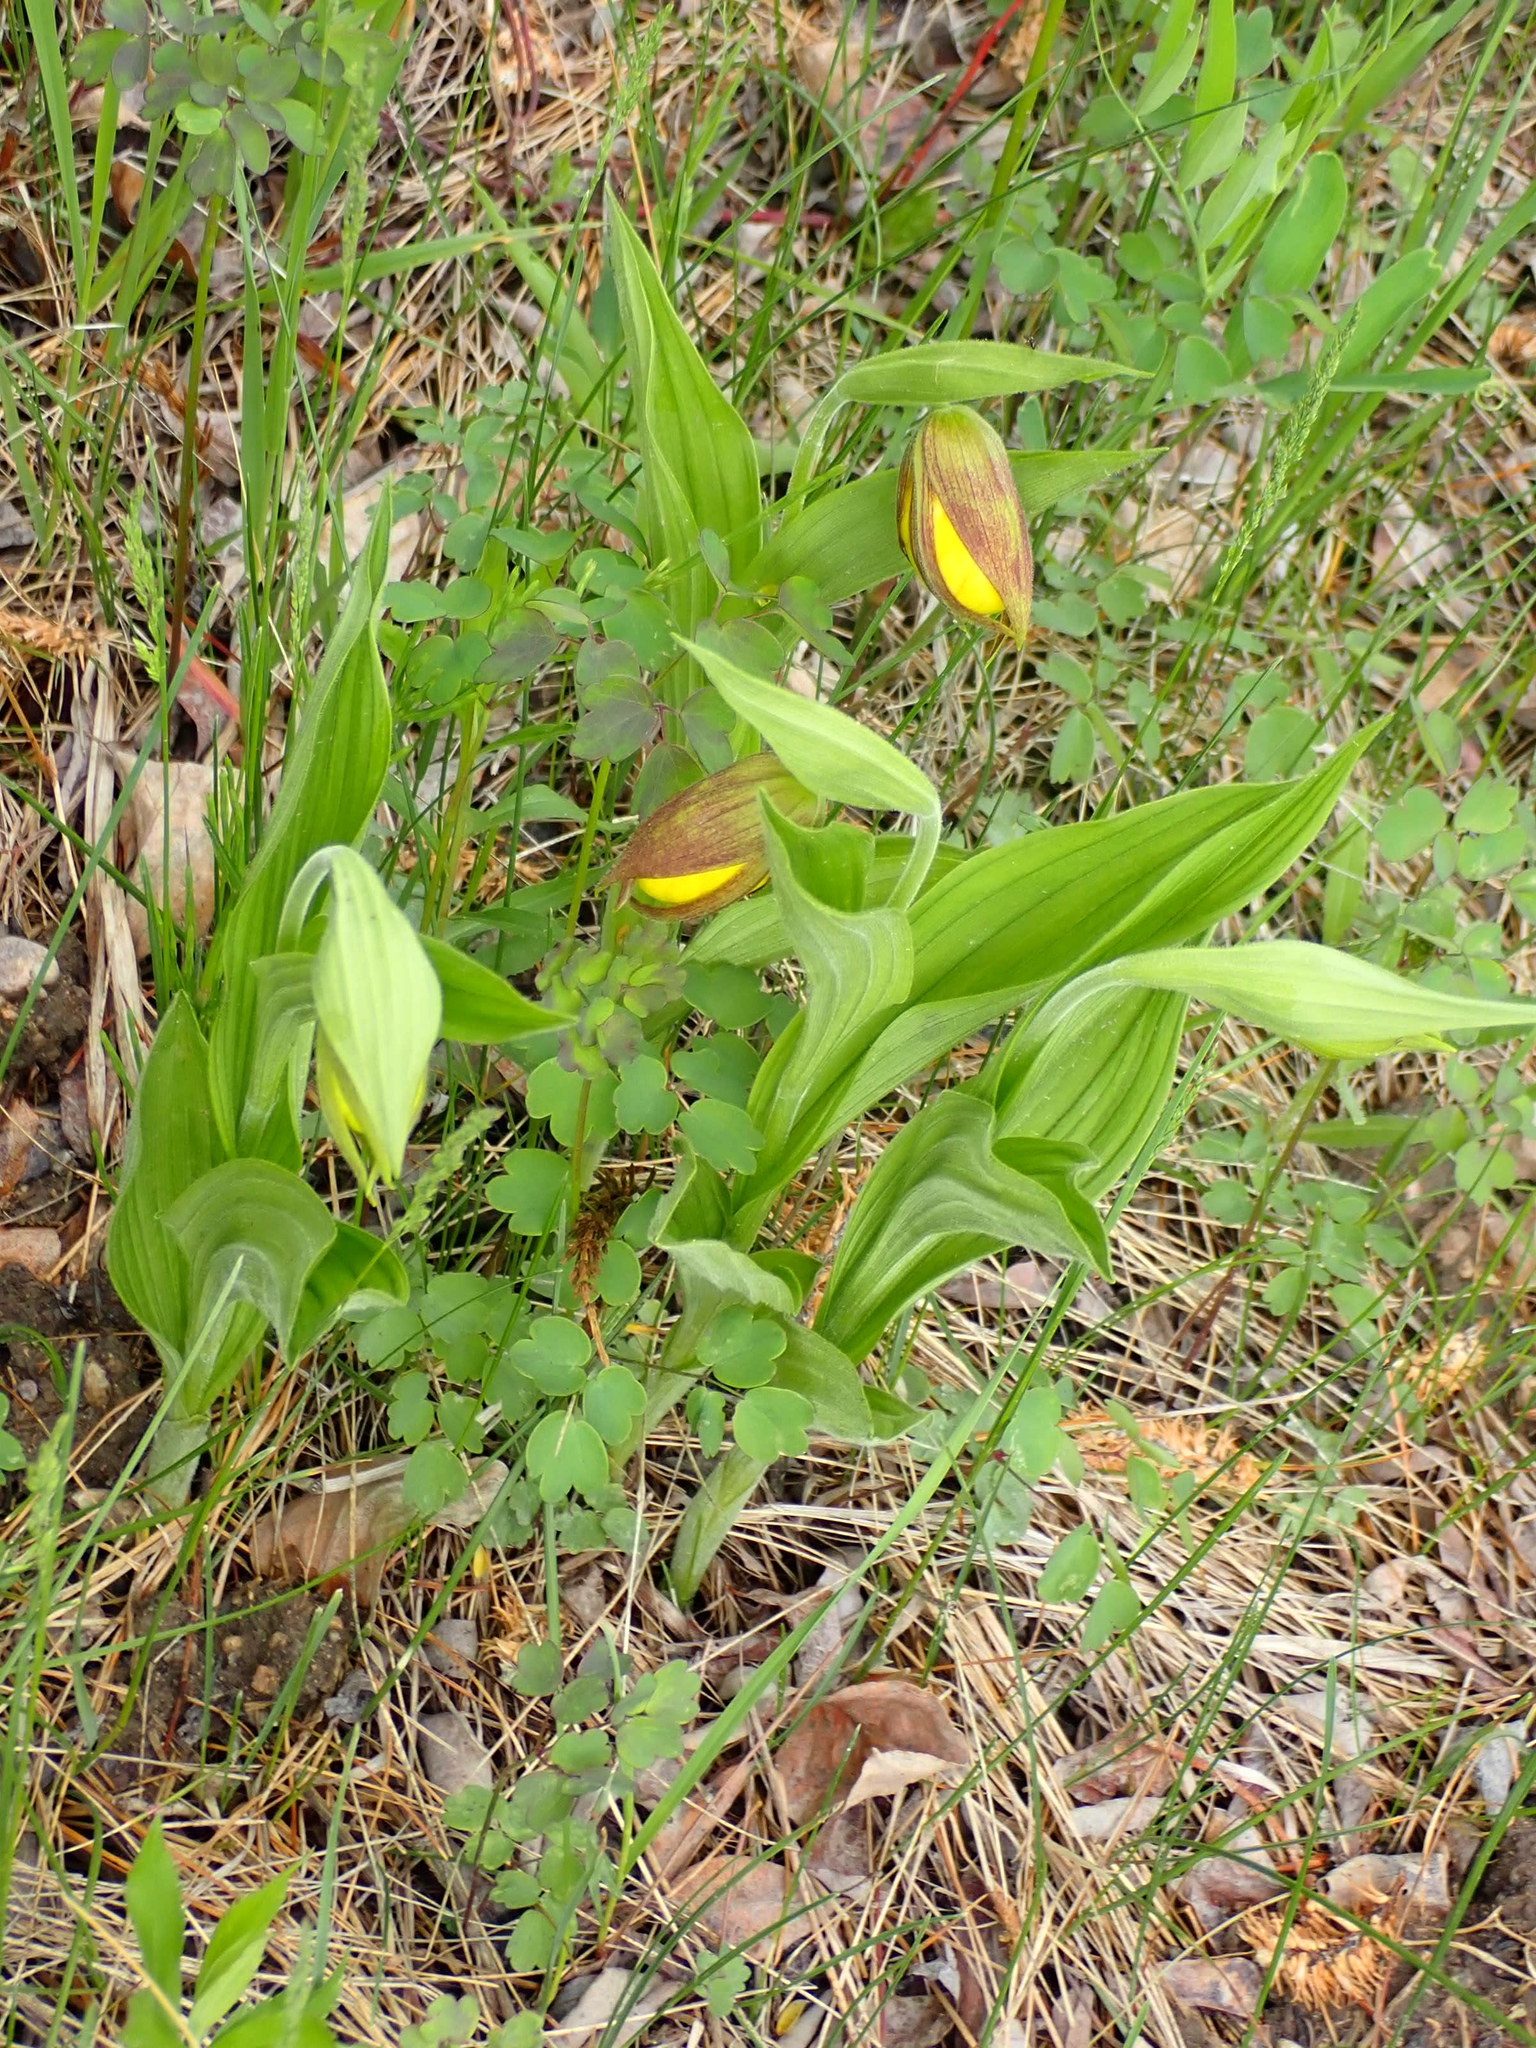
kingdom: Plantae
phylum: Tracheophyta
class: Liliopsida
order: Asparagales
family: Orchidaceae
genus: Cypripedium
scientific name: Cypripedium parviflorum
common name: American yellow lady's-slipper
